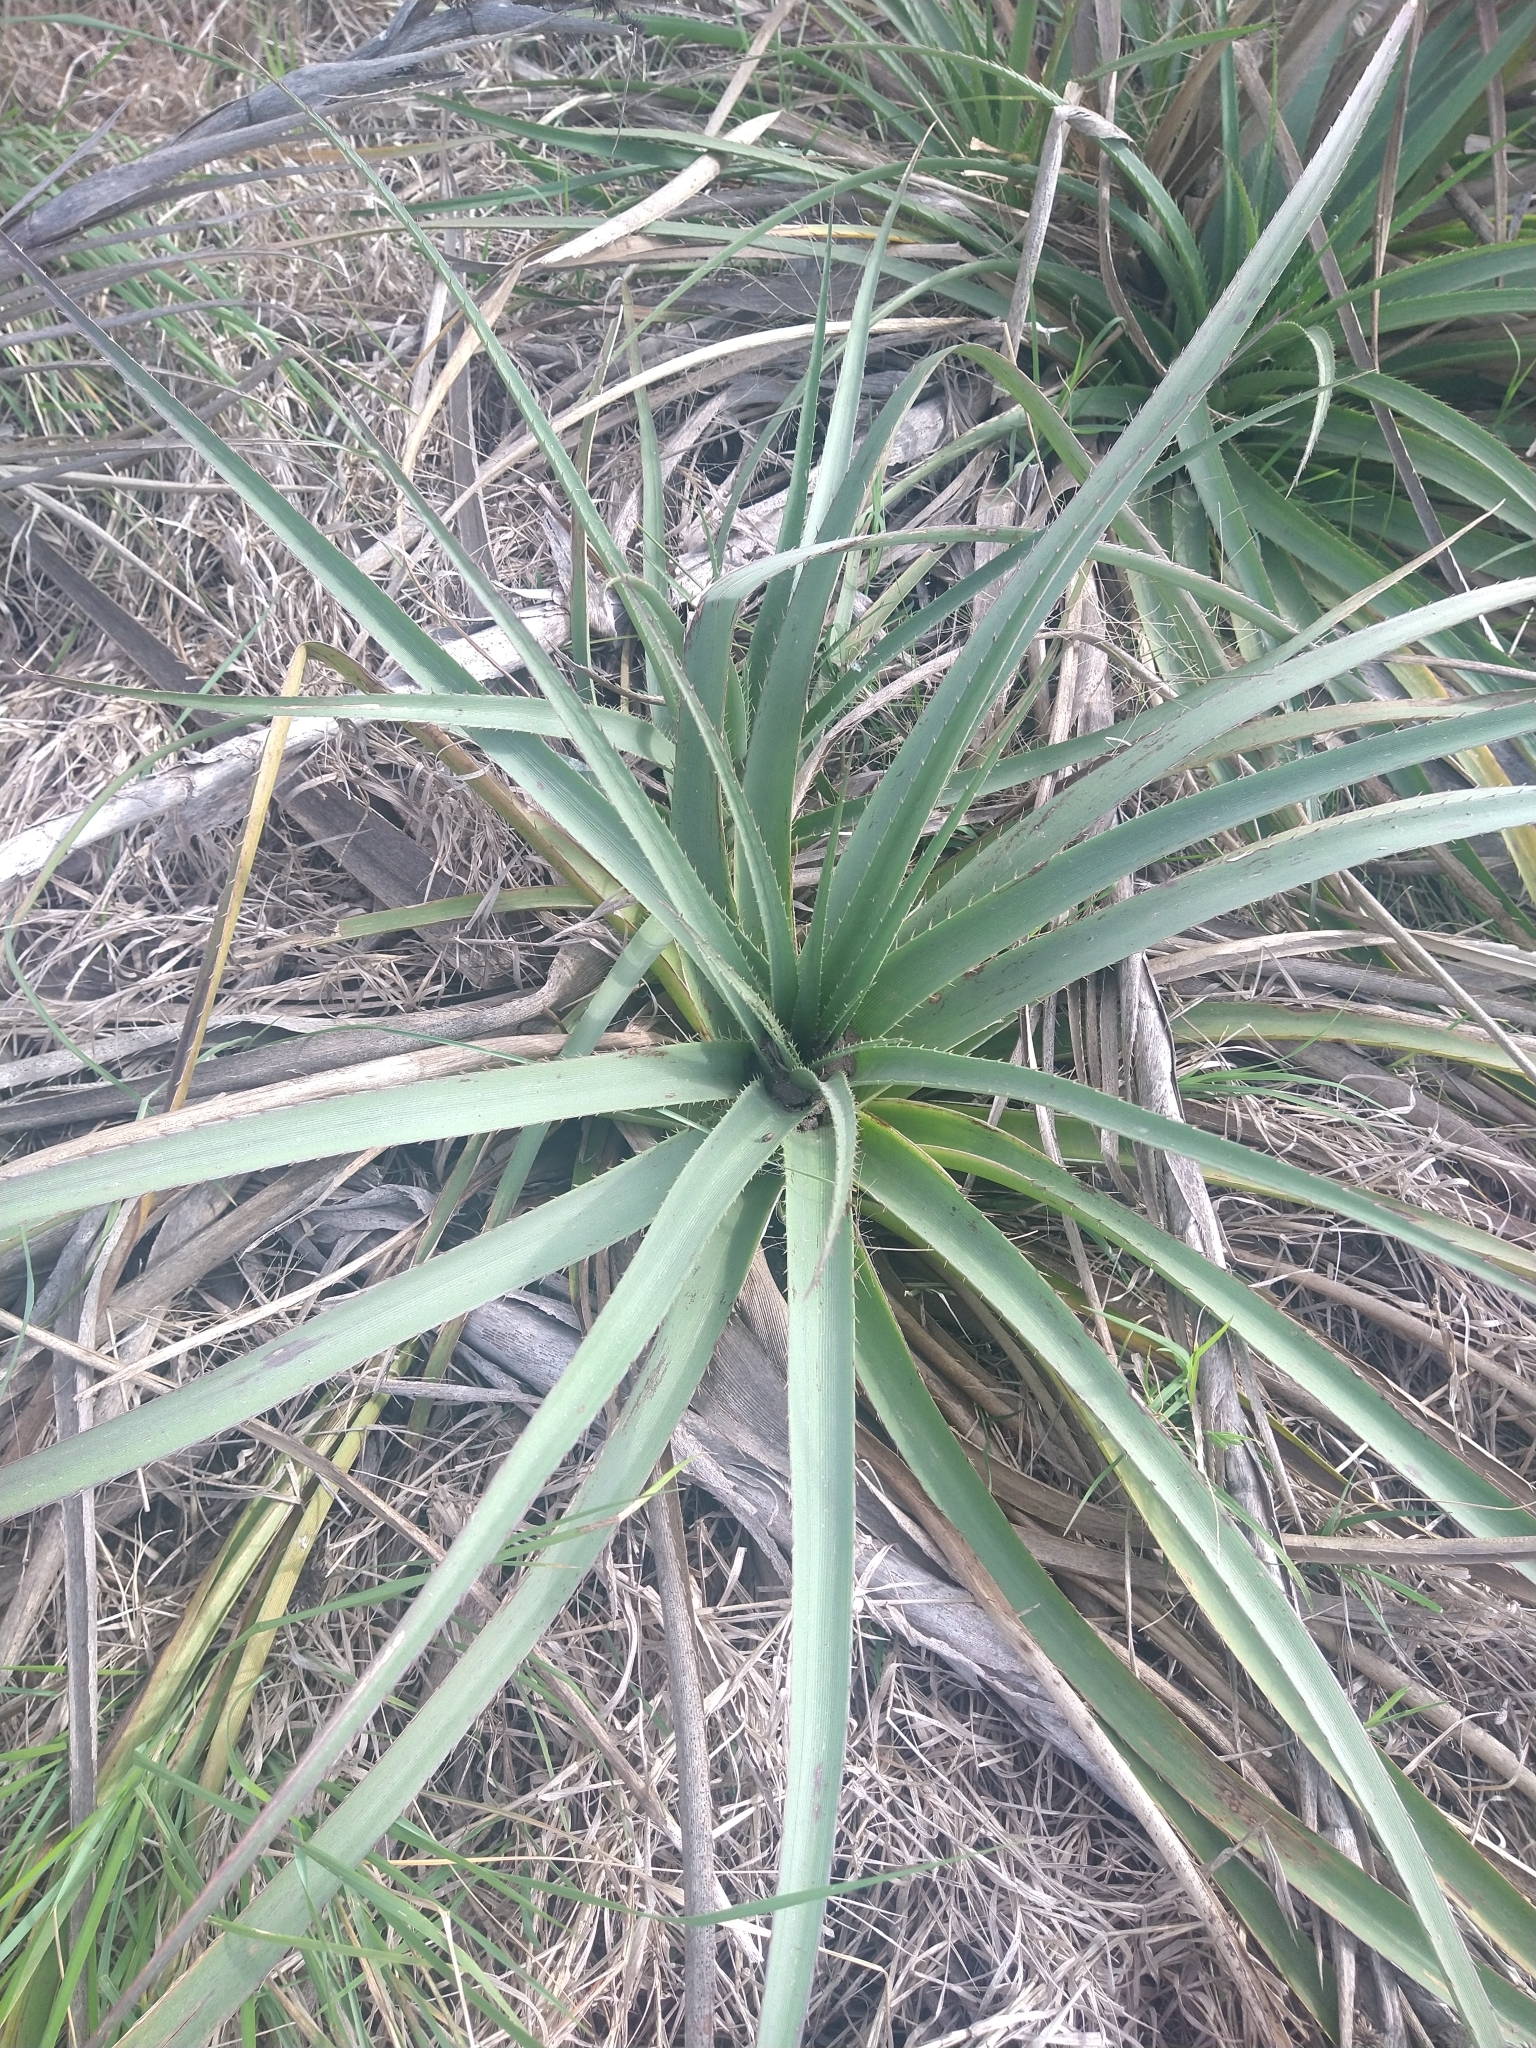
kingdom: Plantae
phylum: Tracheophyta
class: Magnoliopsida
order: Apiales
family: Apiaceae
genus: Eryngium
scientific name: Eryngium eburneum
